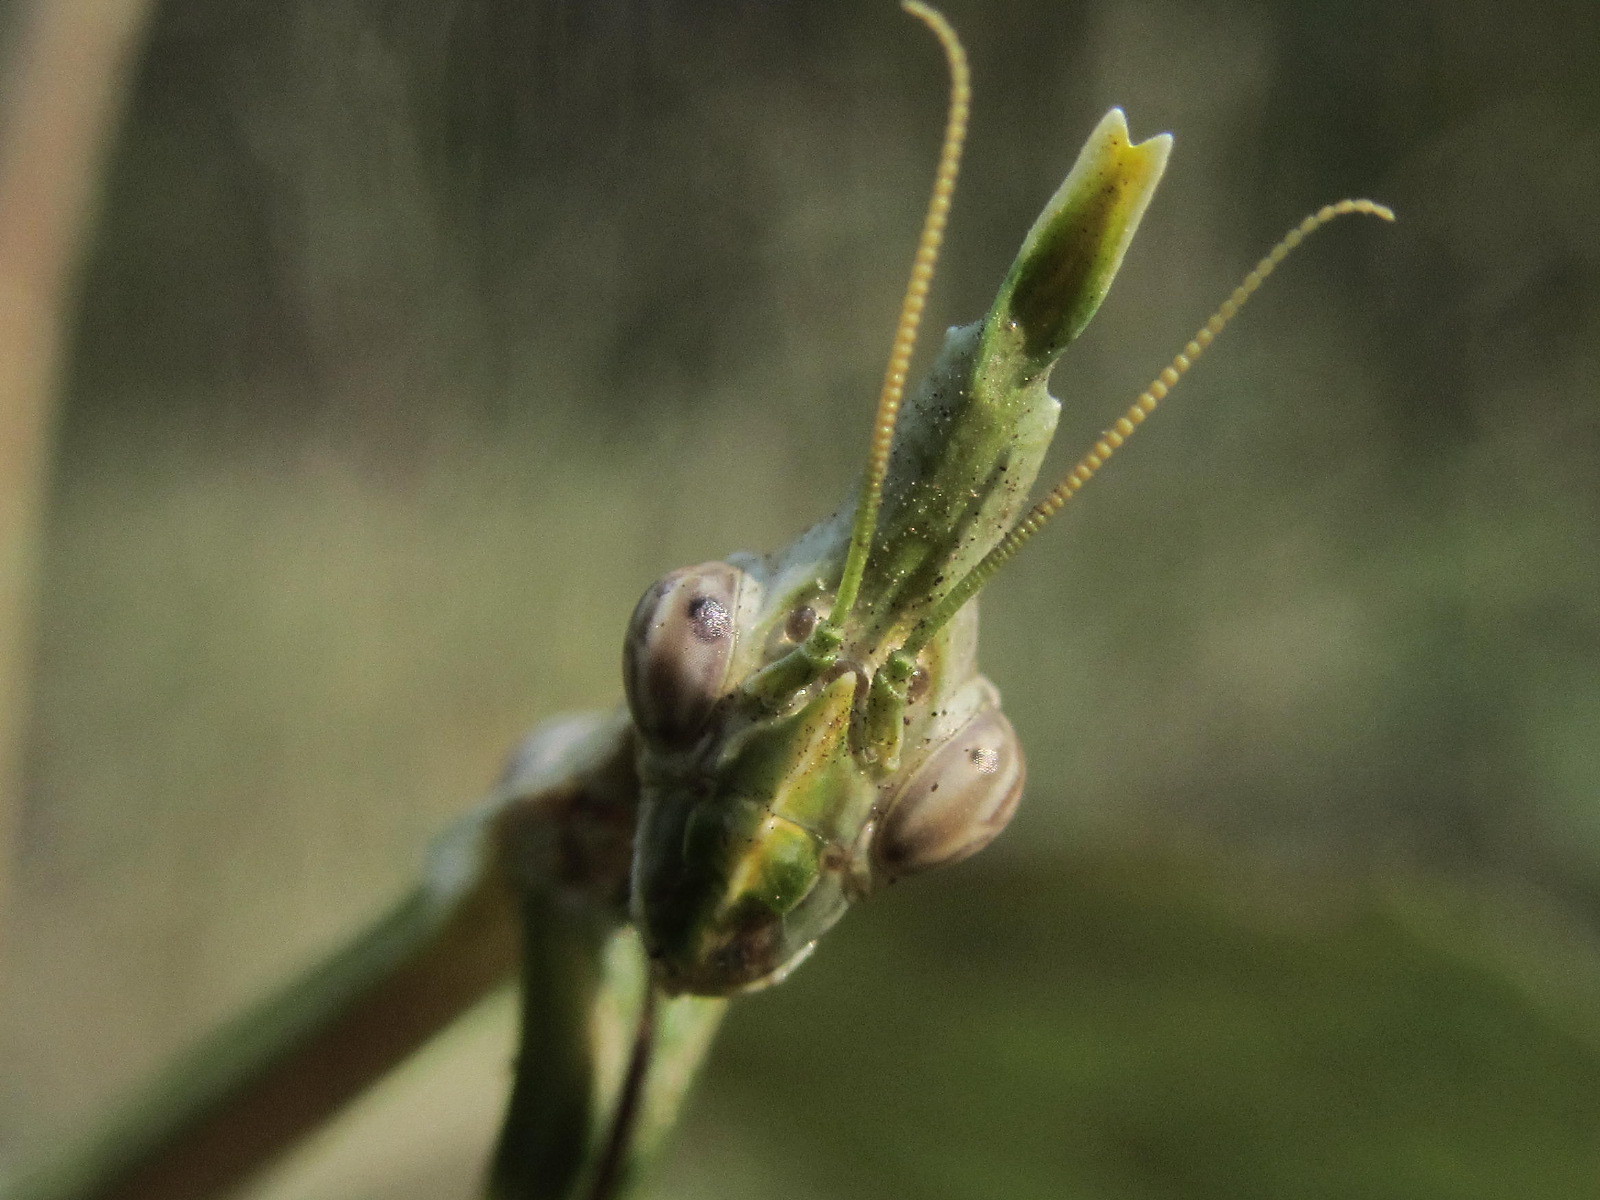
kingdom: Animalia
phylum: Arthropoda
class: Insecta
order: Mantodea
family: Empusidae
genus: Empusa
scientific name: Empusa pennicornis
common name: Conehead mantis
